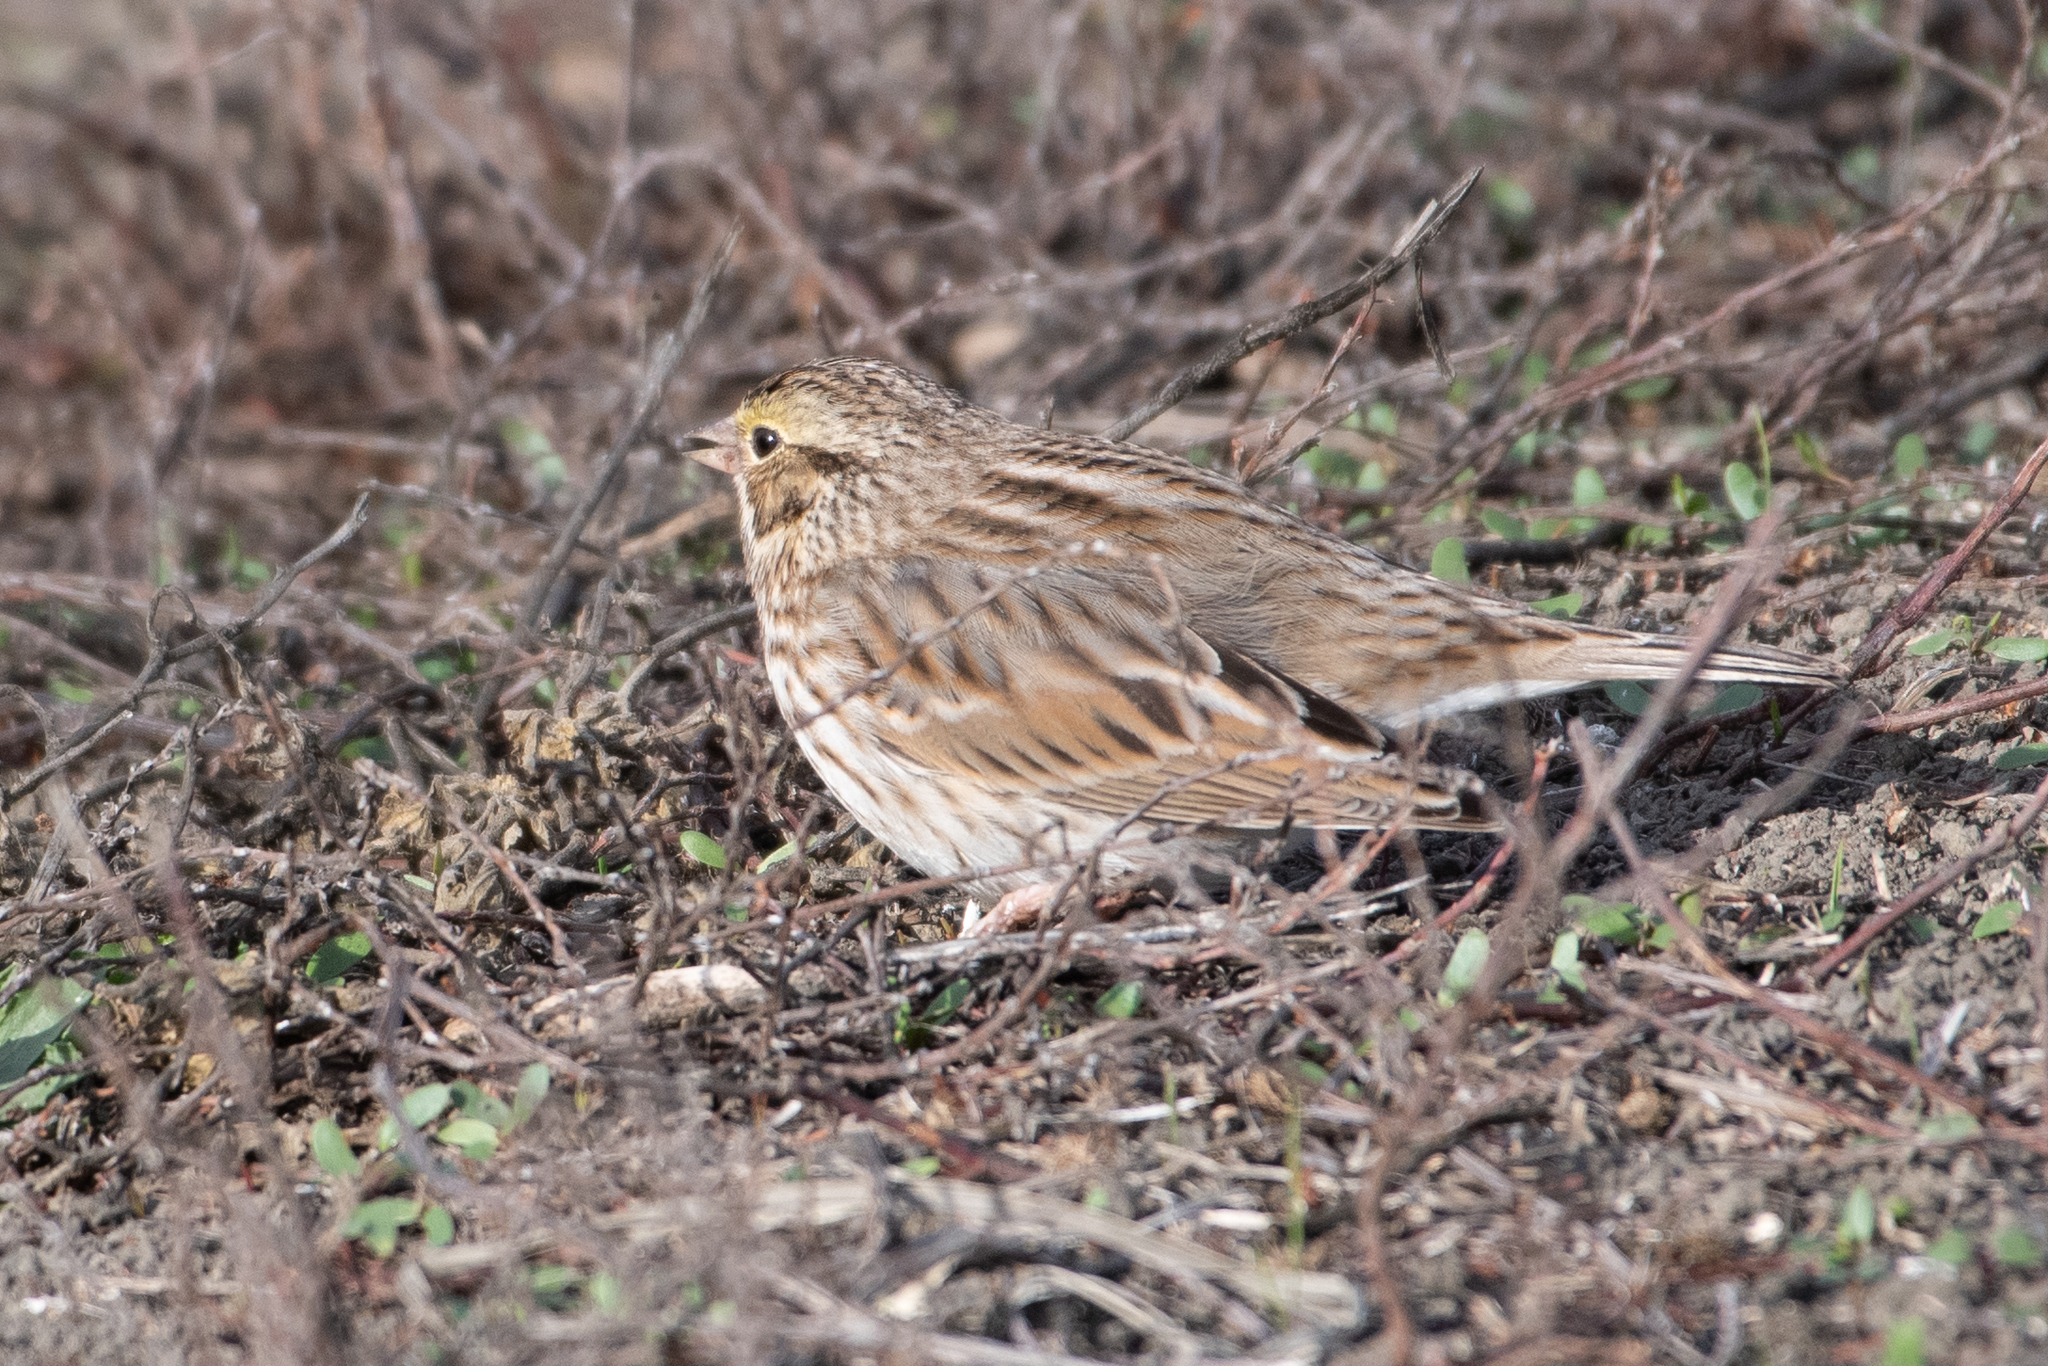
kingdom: Animalia
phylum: Chordata
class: Aves
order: Passeriformes
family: Passerellidae
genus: Passerculus
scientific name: Passerculus sandwichensis
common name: Savannah sparrow
